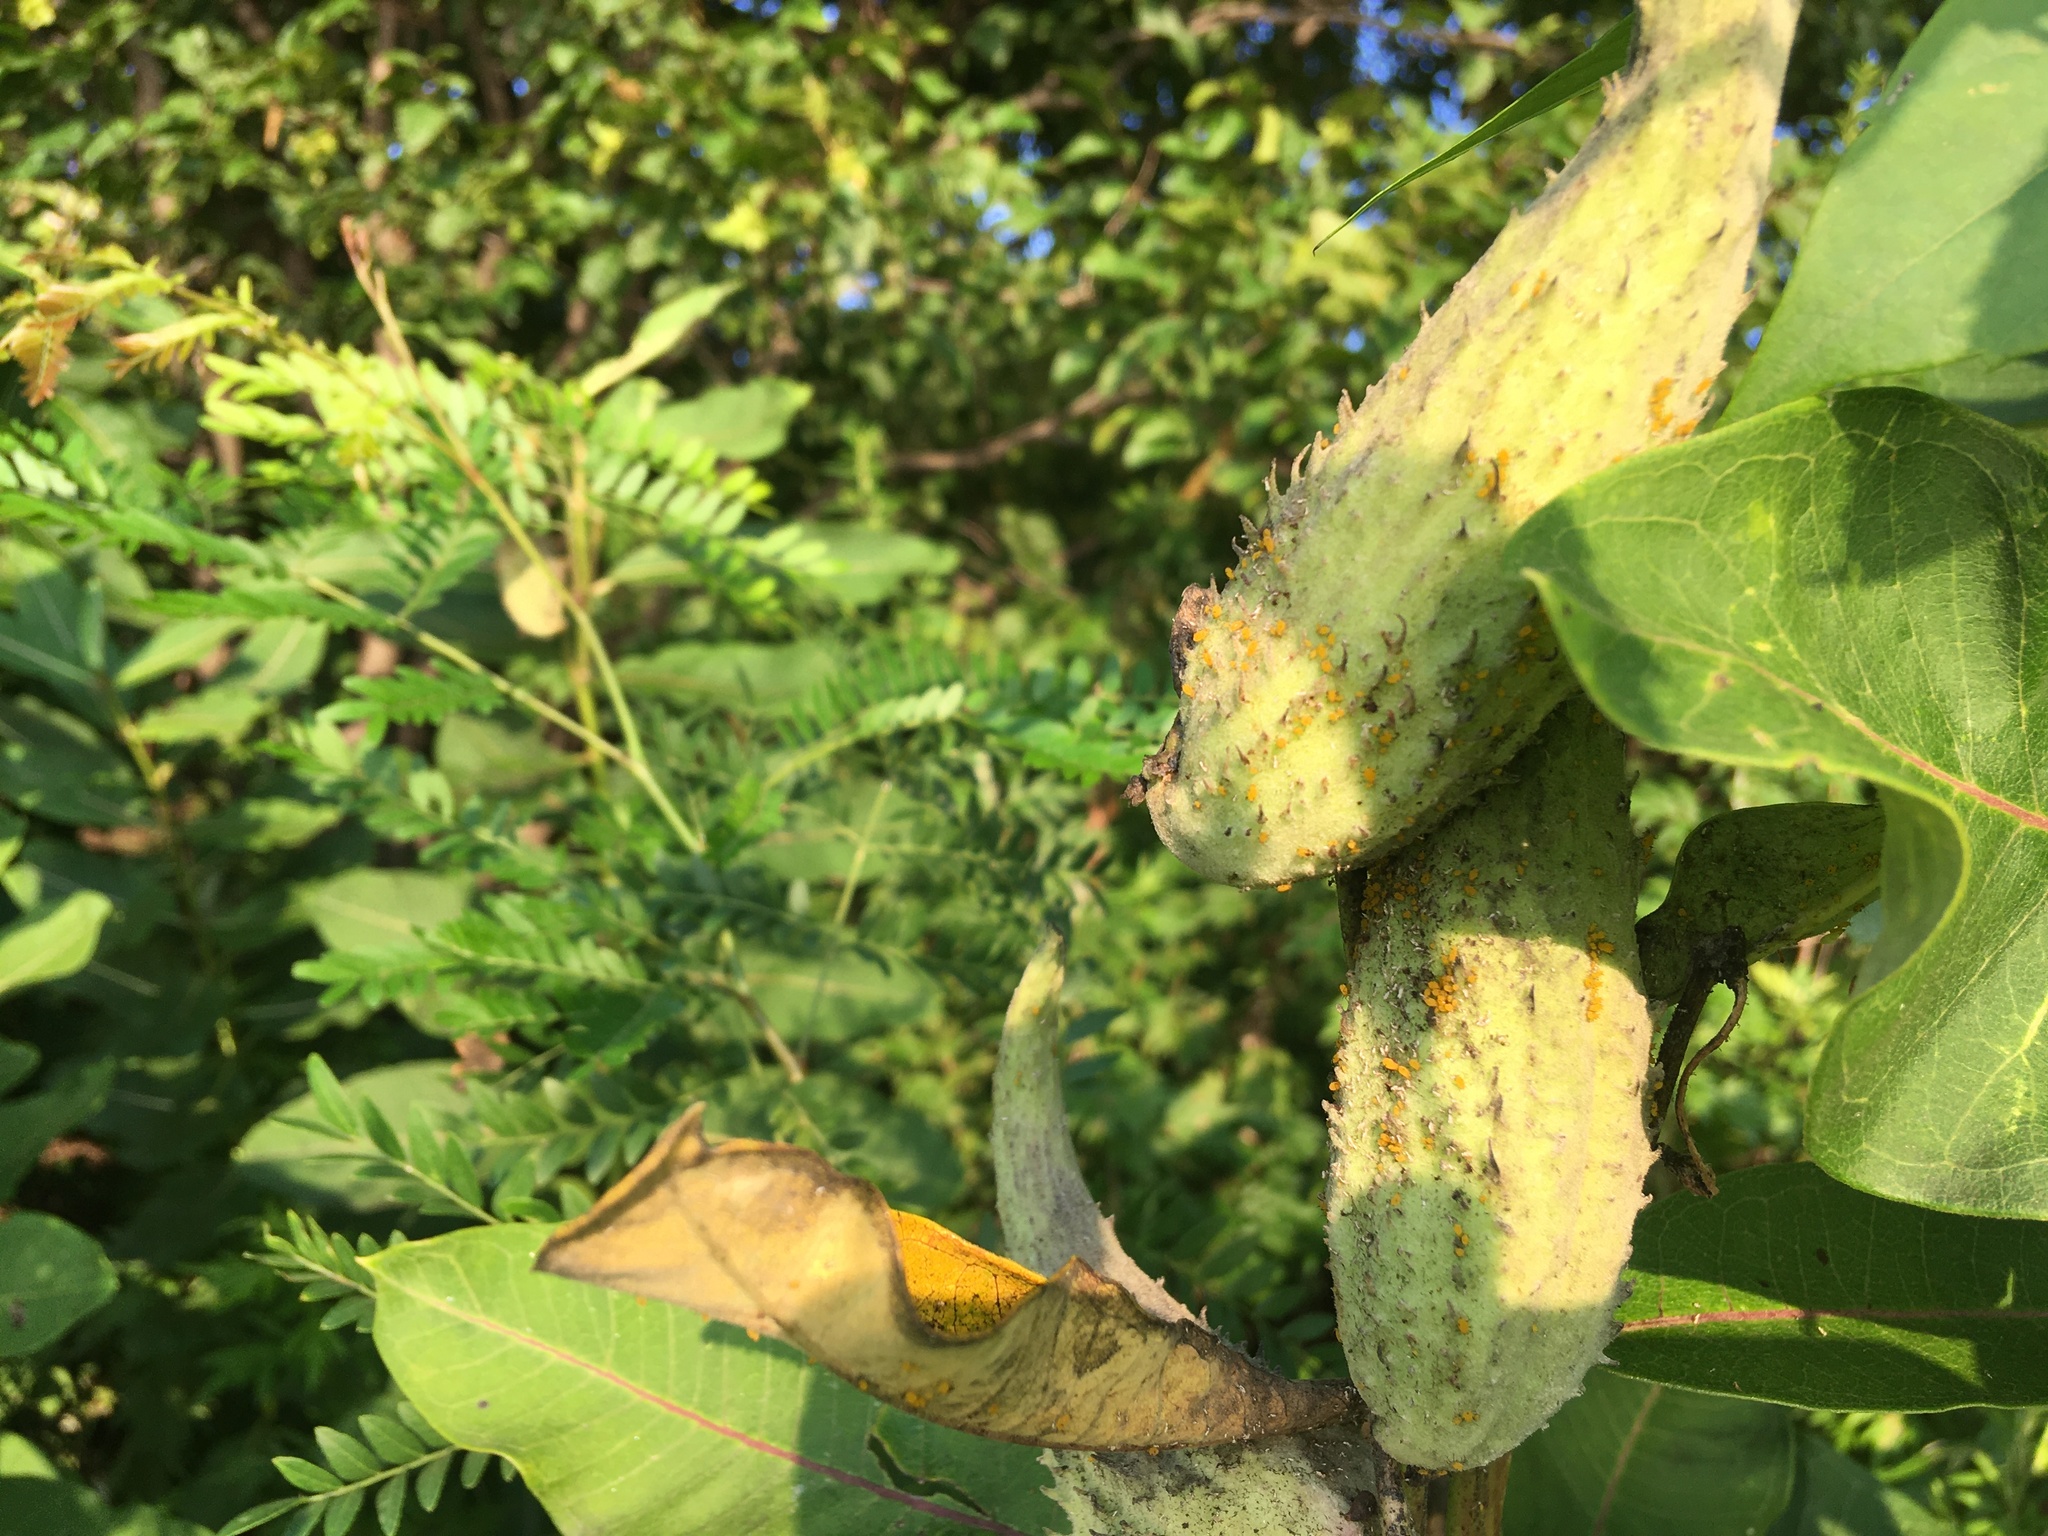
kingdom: Plantae
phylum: Tracheophyta
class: Magnoliopsida
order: Gentianales
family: Apocynaceae
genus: Asclepias
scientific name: Asclepias syriaca
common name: Common milkweed
